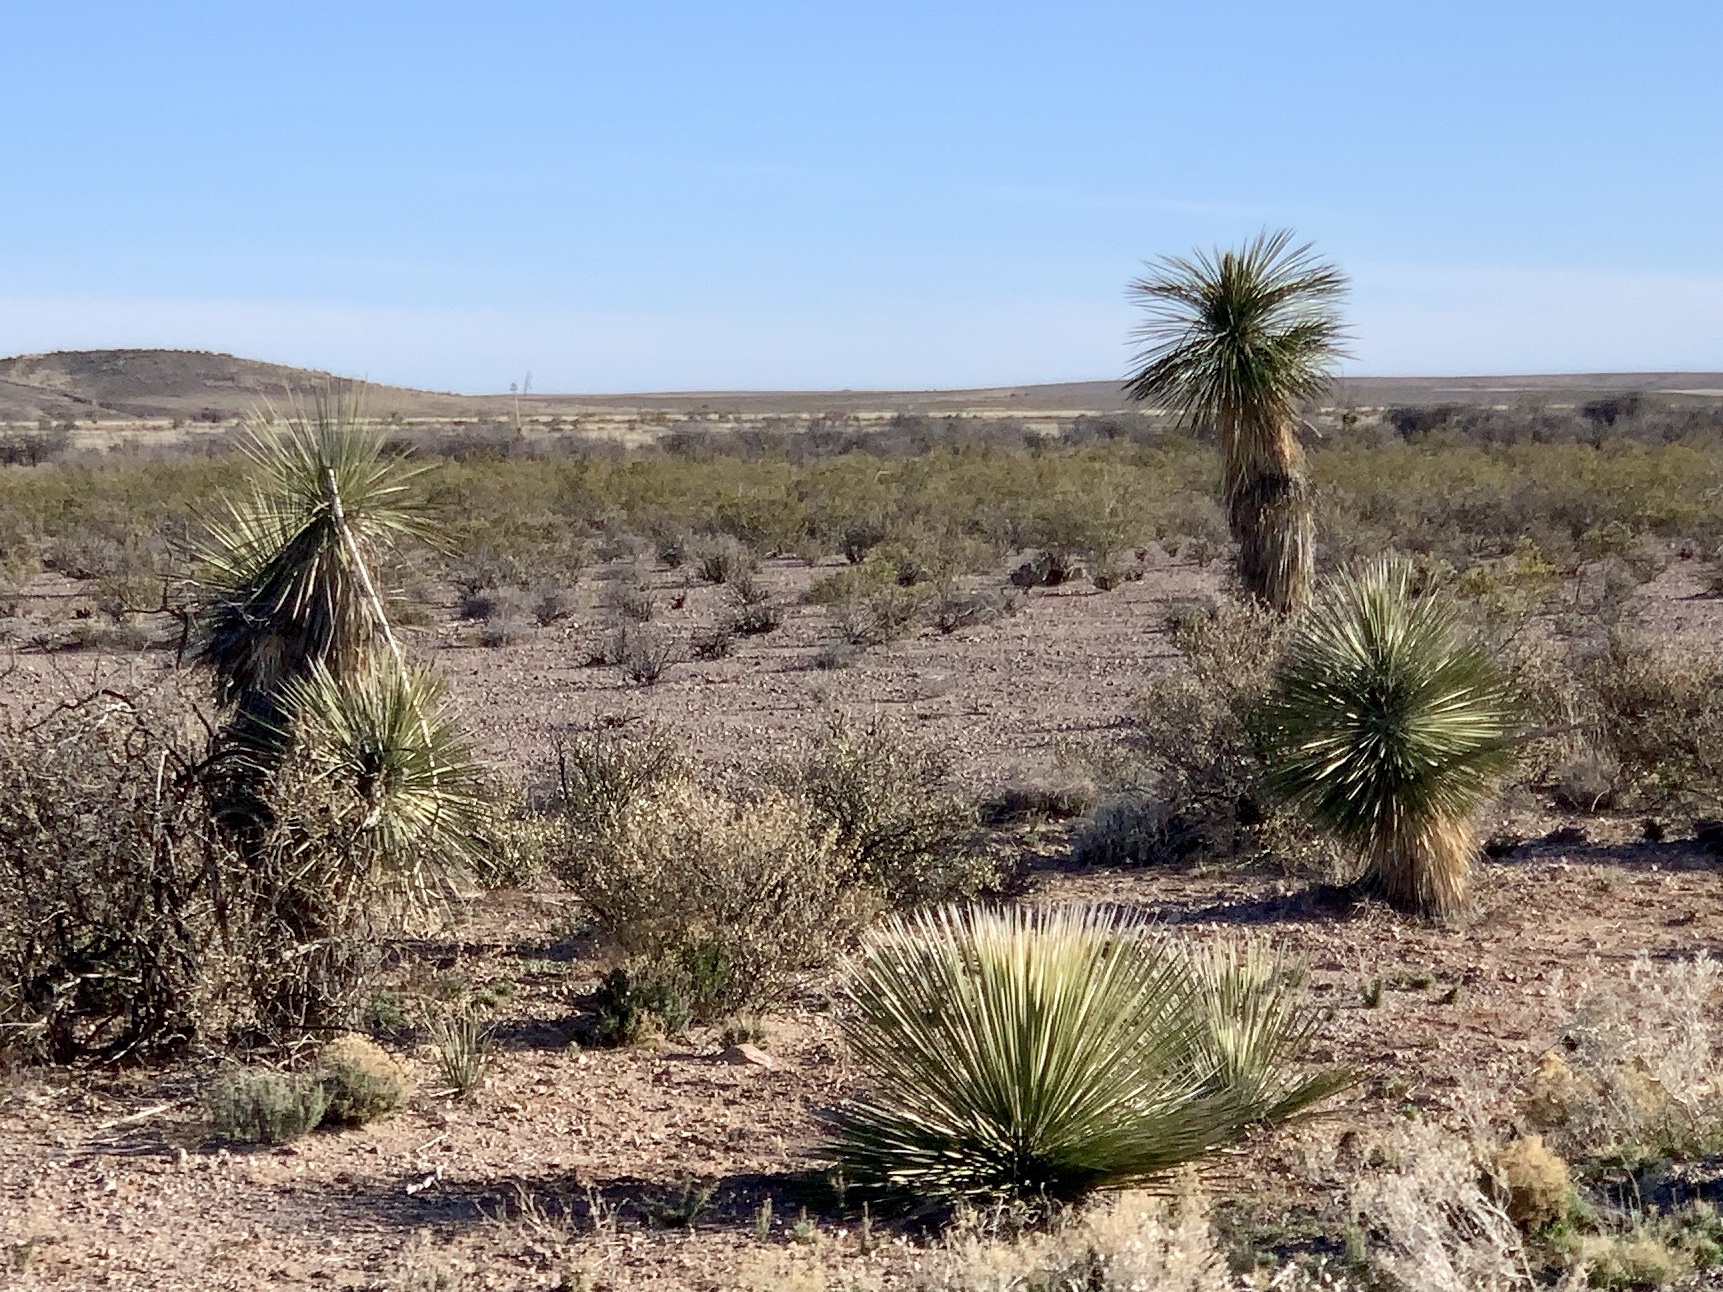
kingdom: Plantae
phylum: Tracheophyta
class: Liliopsida
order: Asparagales
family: Asparagaceae
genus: Yucca
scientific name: Yucca elata
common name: Palmella
